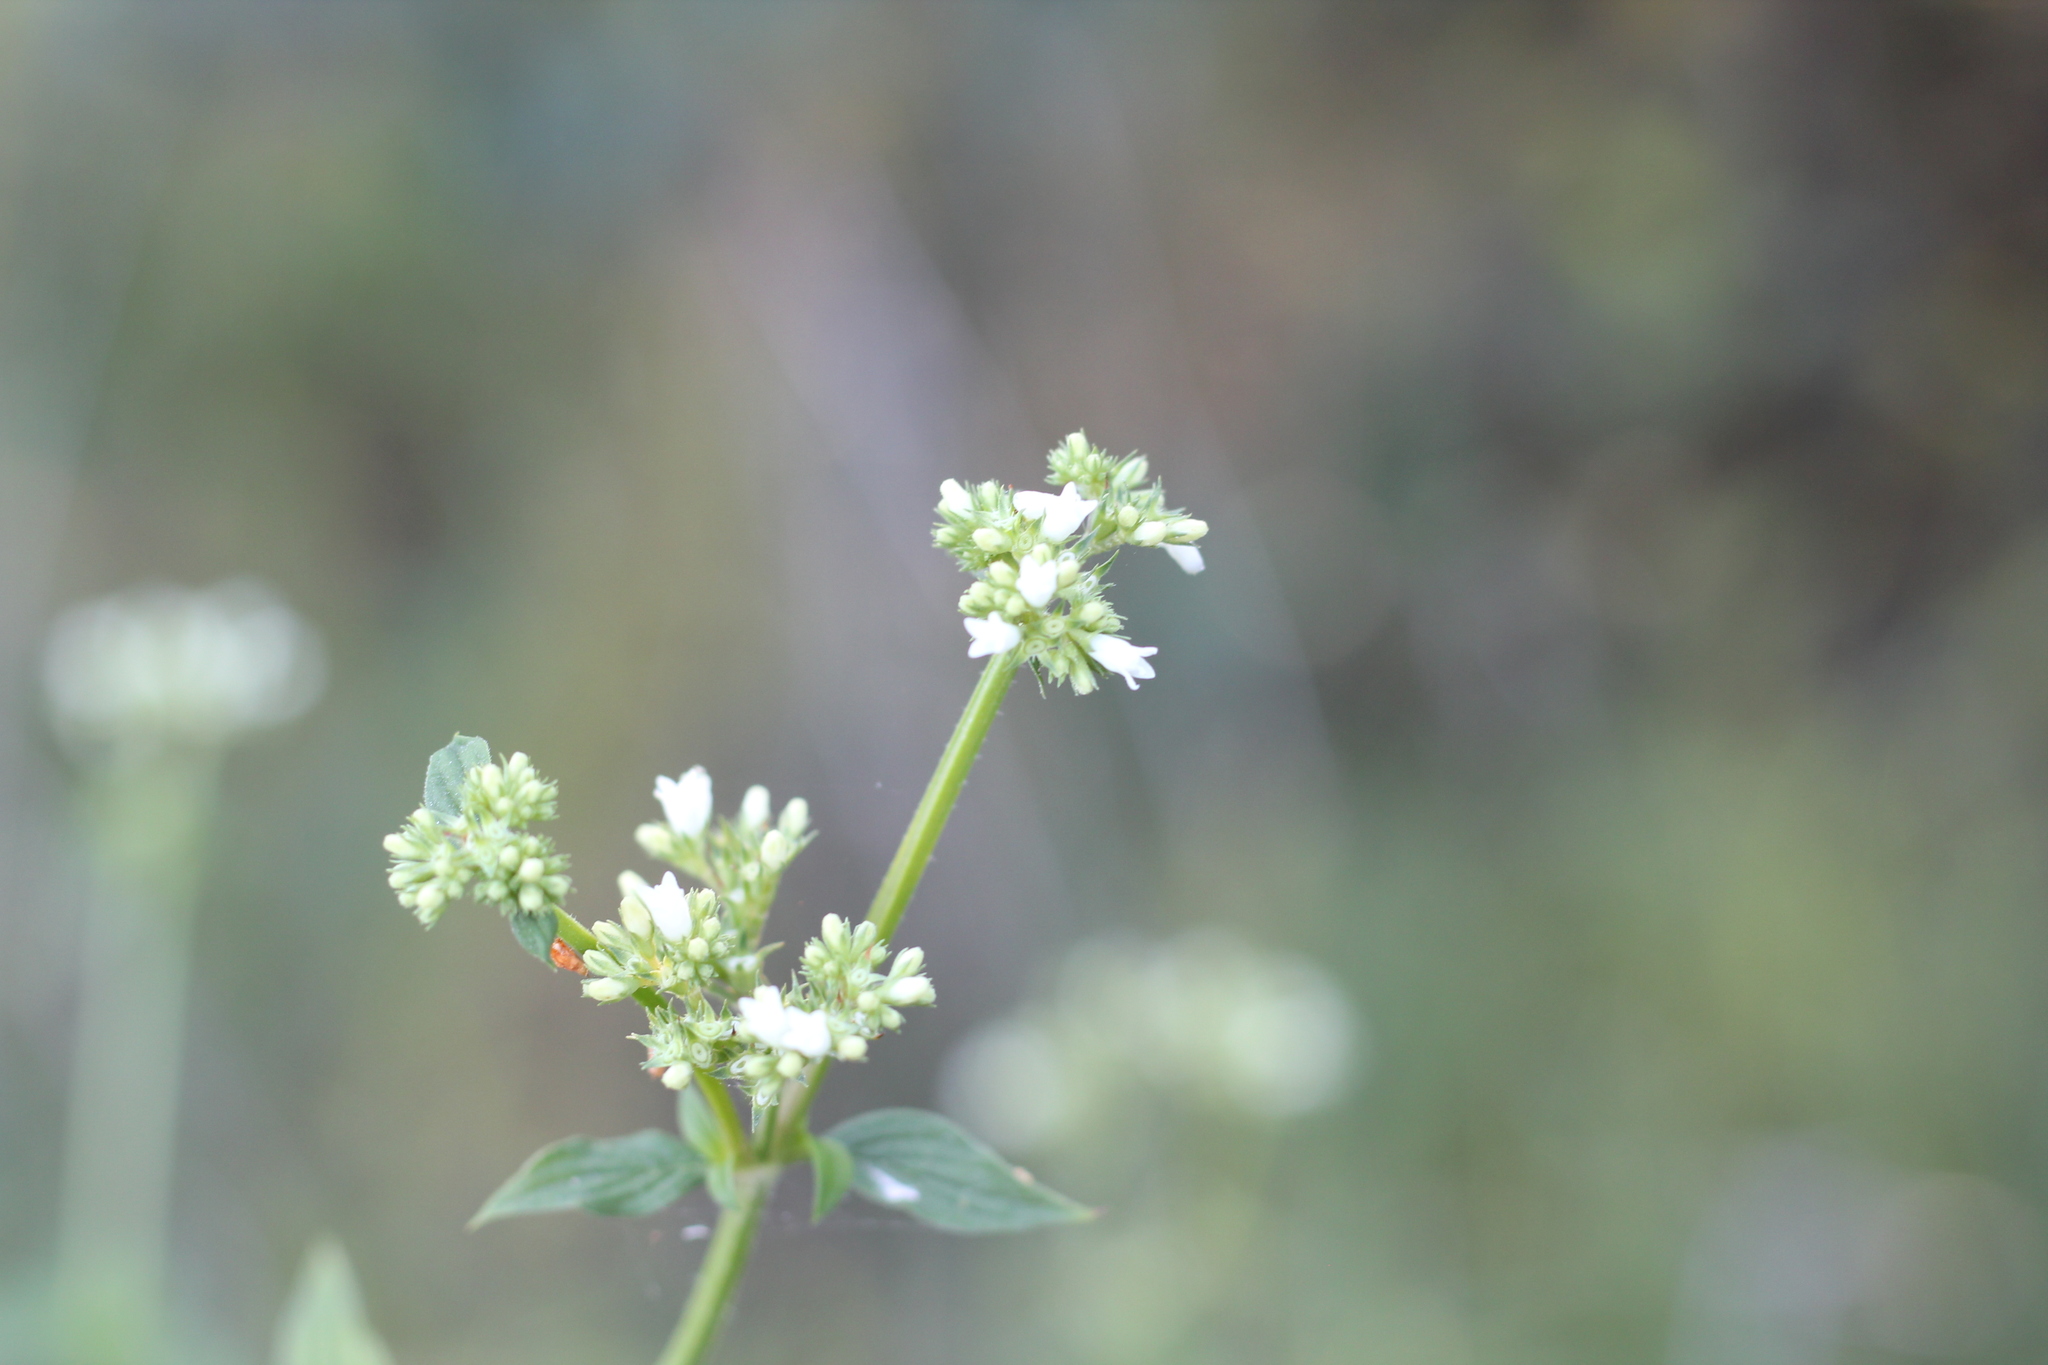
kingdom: Plantae
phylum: Tracheophyta
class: Magnoliopsida
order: Gentianales
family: Rubiaceae
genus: Galianthe
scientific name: Galianthe laxa
